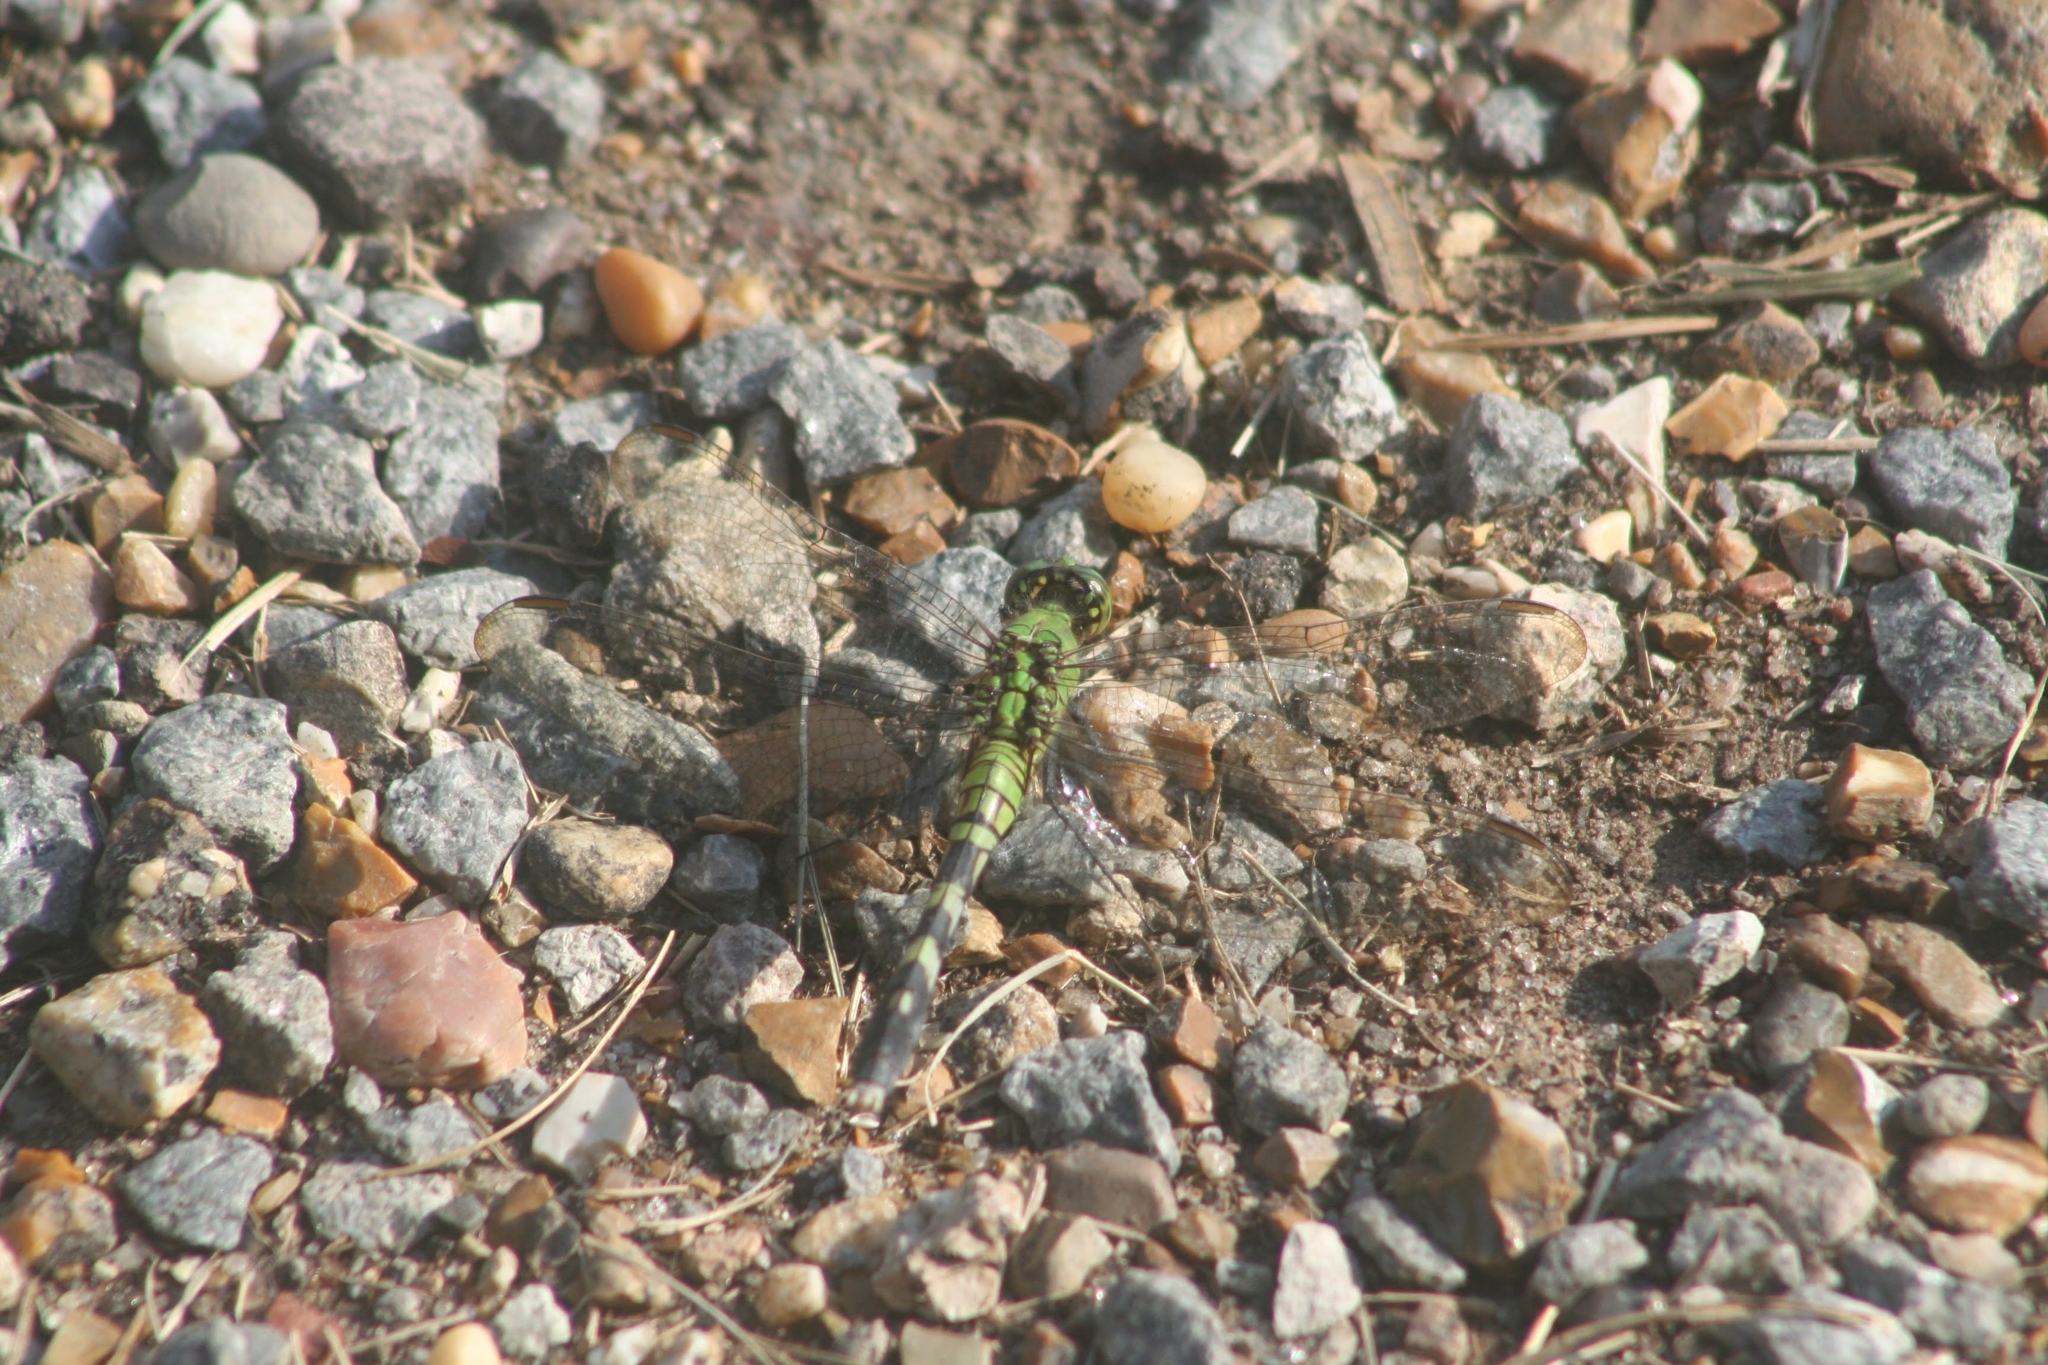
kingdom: Animalia
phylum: Arthropoda
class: Insecta
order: Odonata
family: Libellulidae
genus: Erythemis
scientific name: Erythemis simplicicollis
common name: Eastern pondhawk
